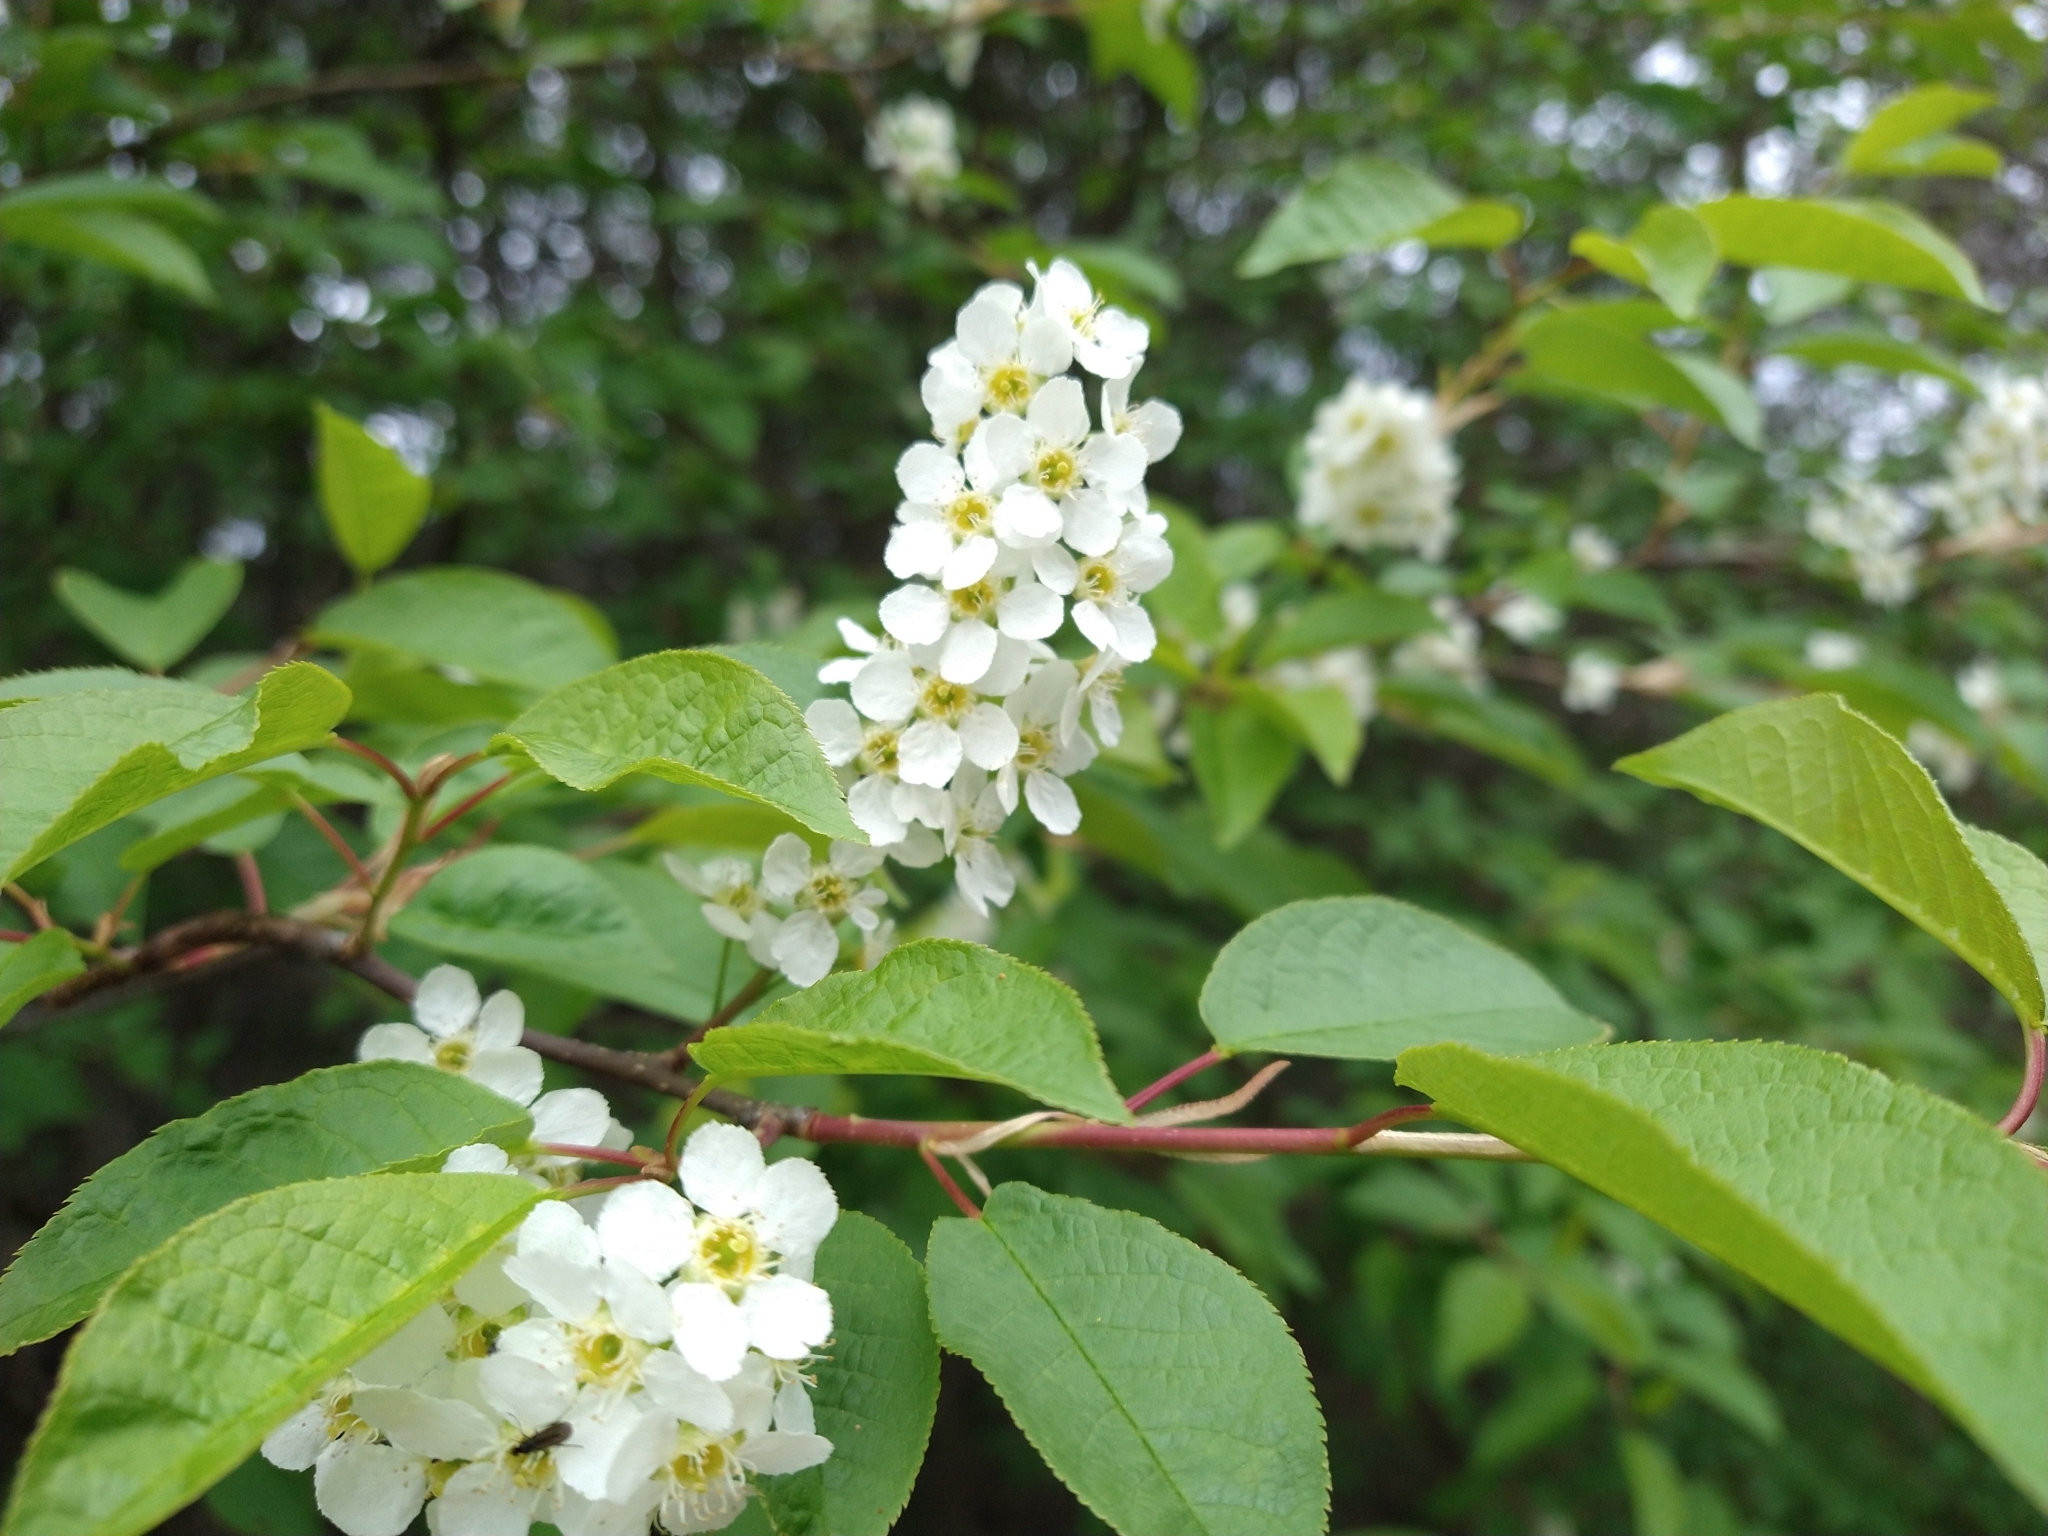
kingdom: Plantae
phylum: Tracheophyta
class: Magnoliopsida
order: Rosales
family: Rosaceae
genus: Prunus
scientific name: Prunus padus
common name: Bird cherry
